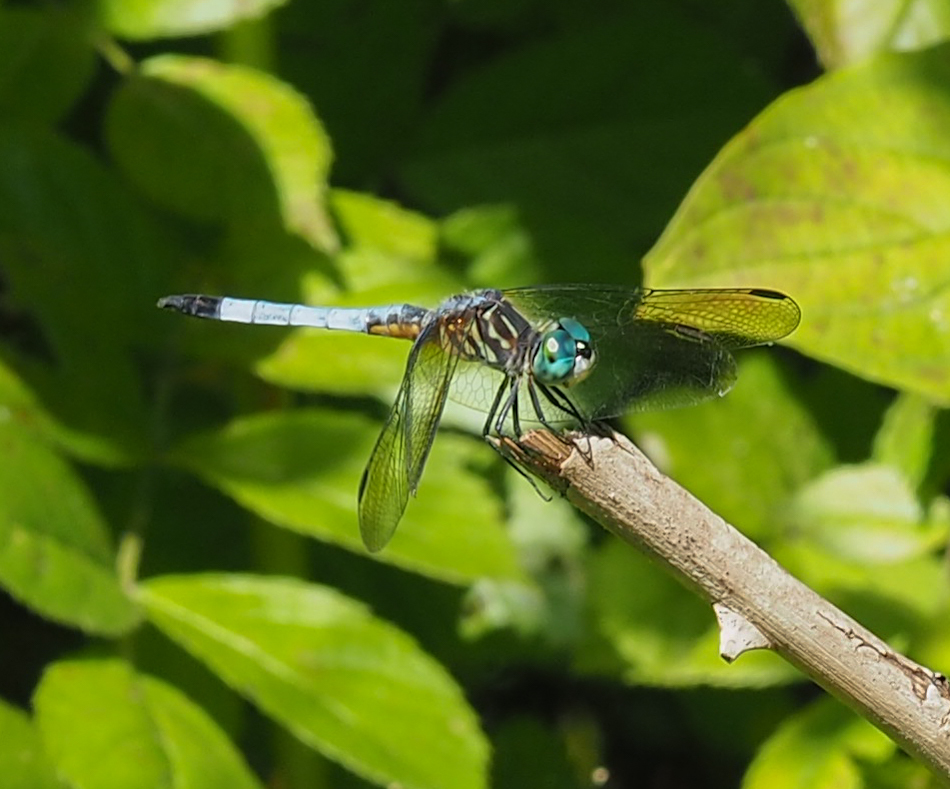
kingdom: Animalia
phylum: Arthropoda
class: Insecta
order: Odonata
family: Libellulidae
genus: Pachydiplax
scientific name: Pachydiplax longipennis
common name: Blue dasher
